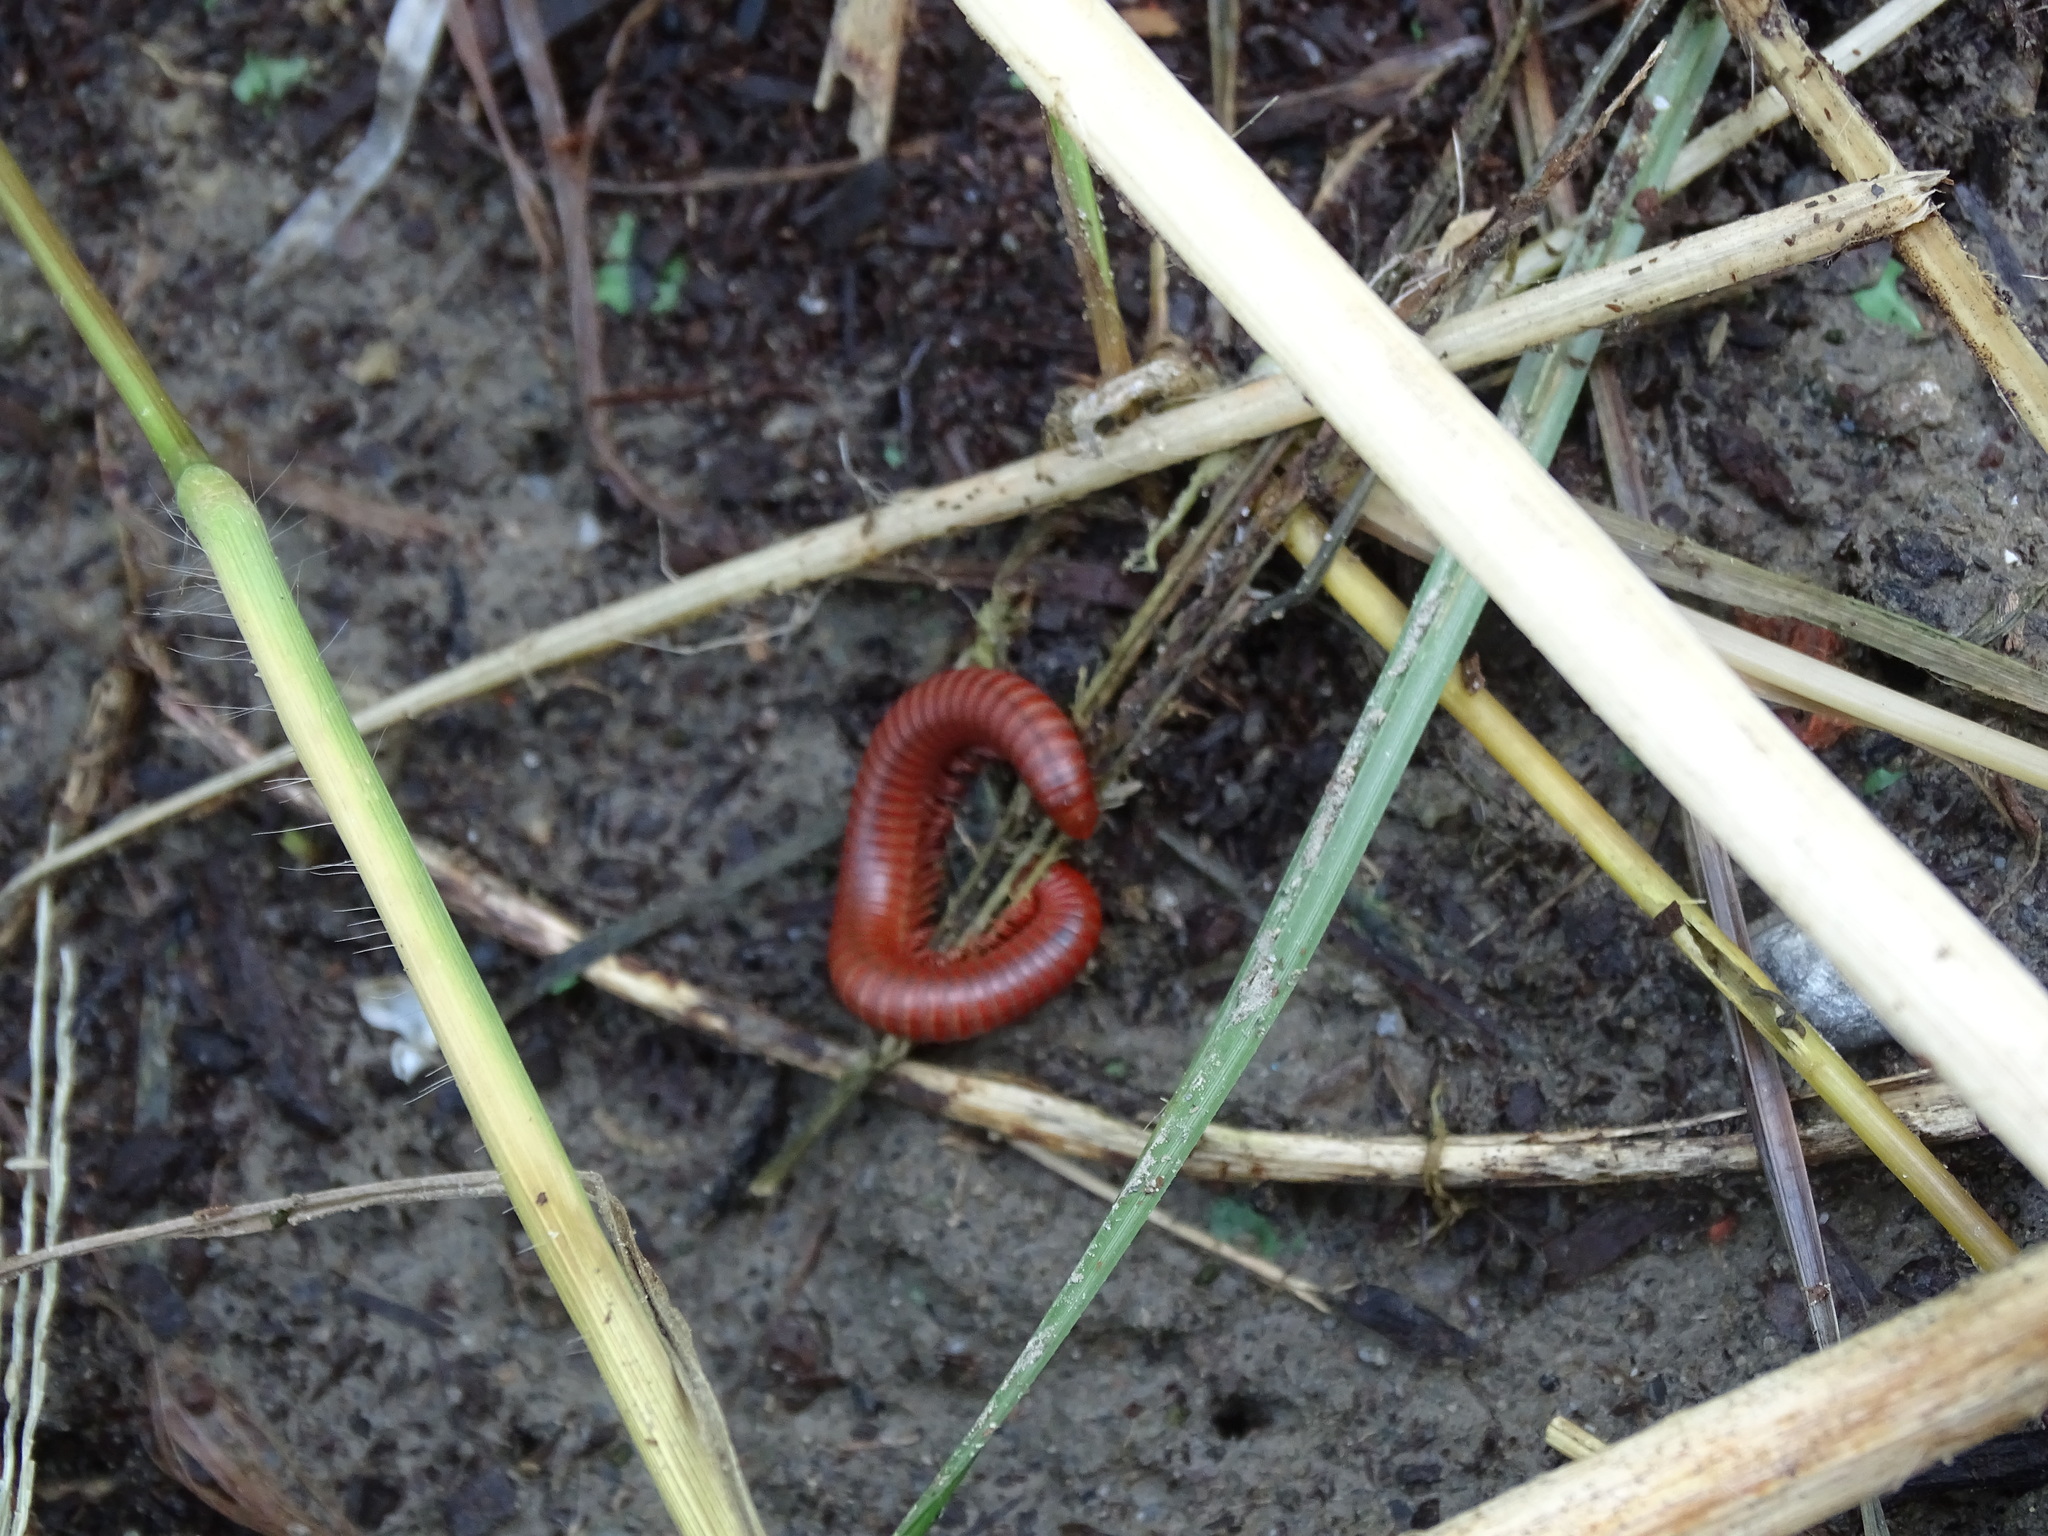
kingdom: Animalia
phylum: Arthropoda
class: Diplopoda
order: Spirobolida
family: Pachybolidae
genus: Trigoniulus
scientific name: Trigoniulus corallinus
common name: Millipede
